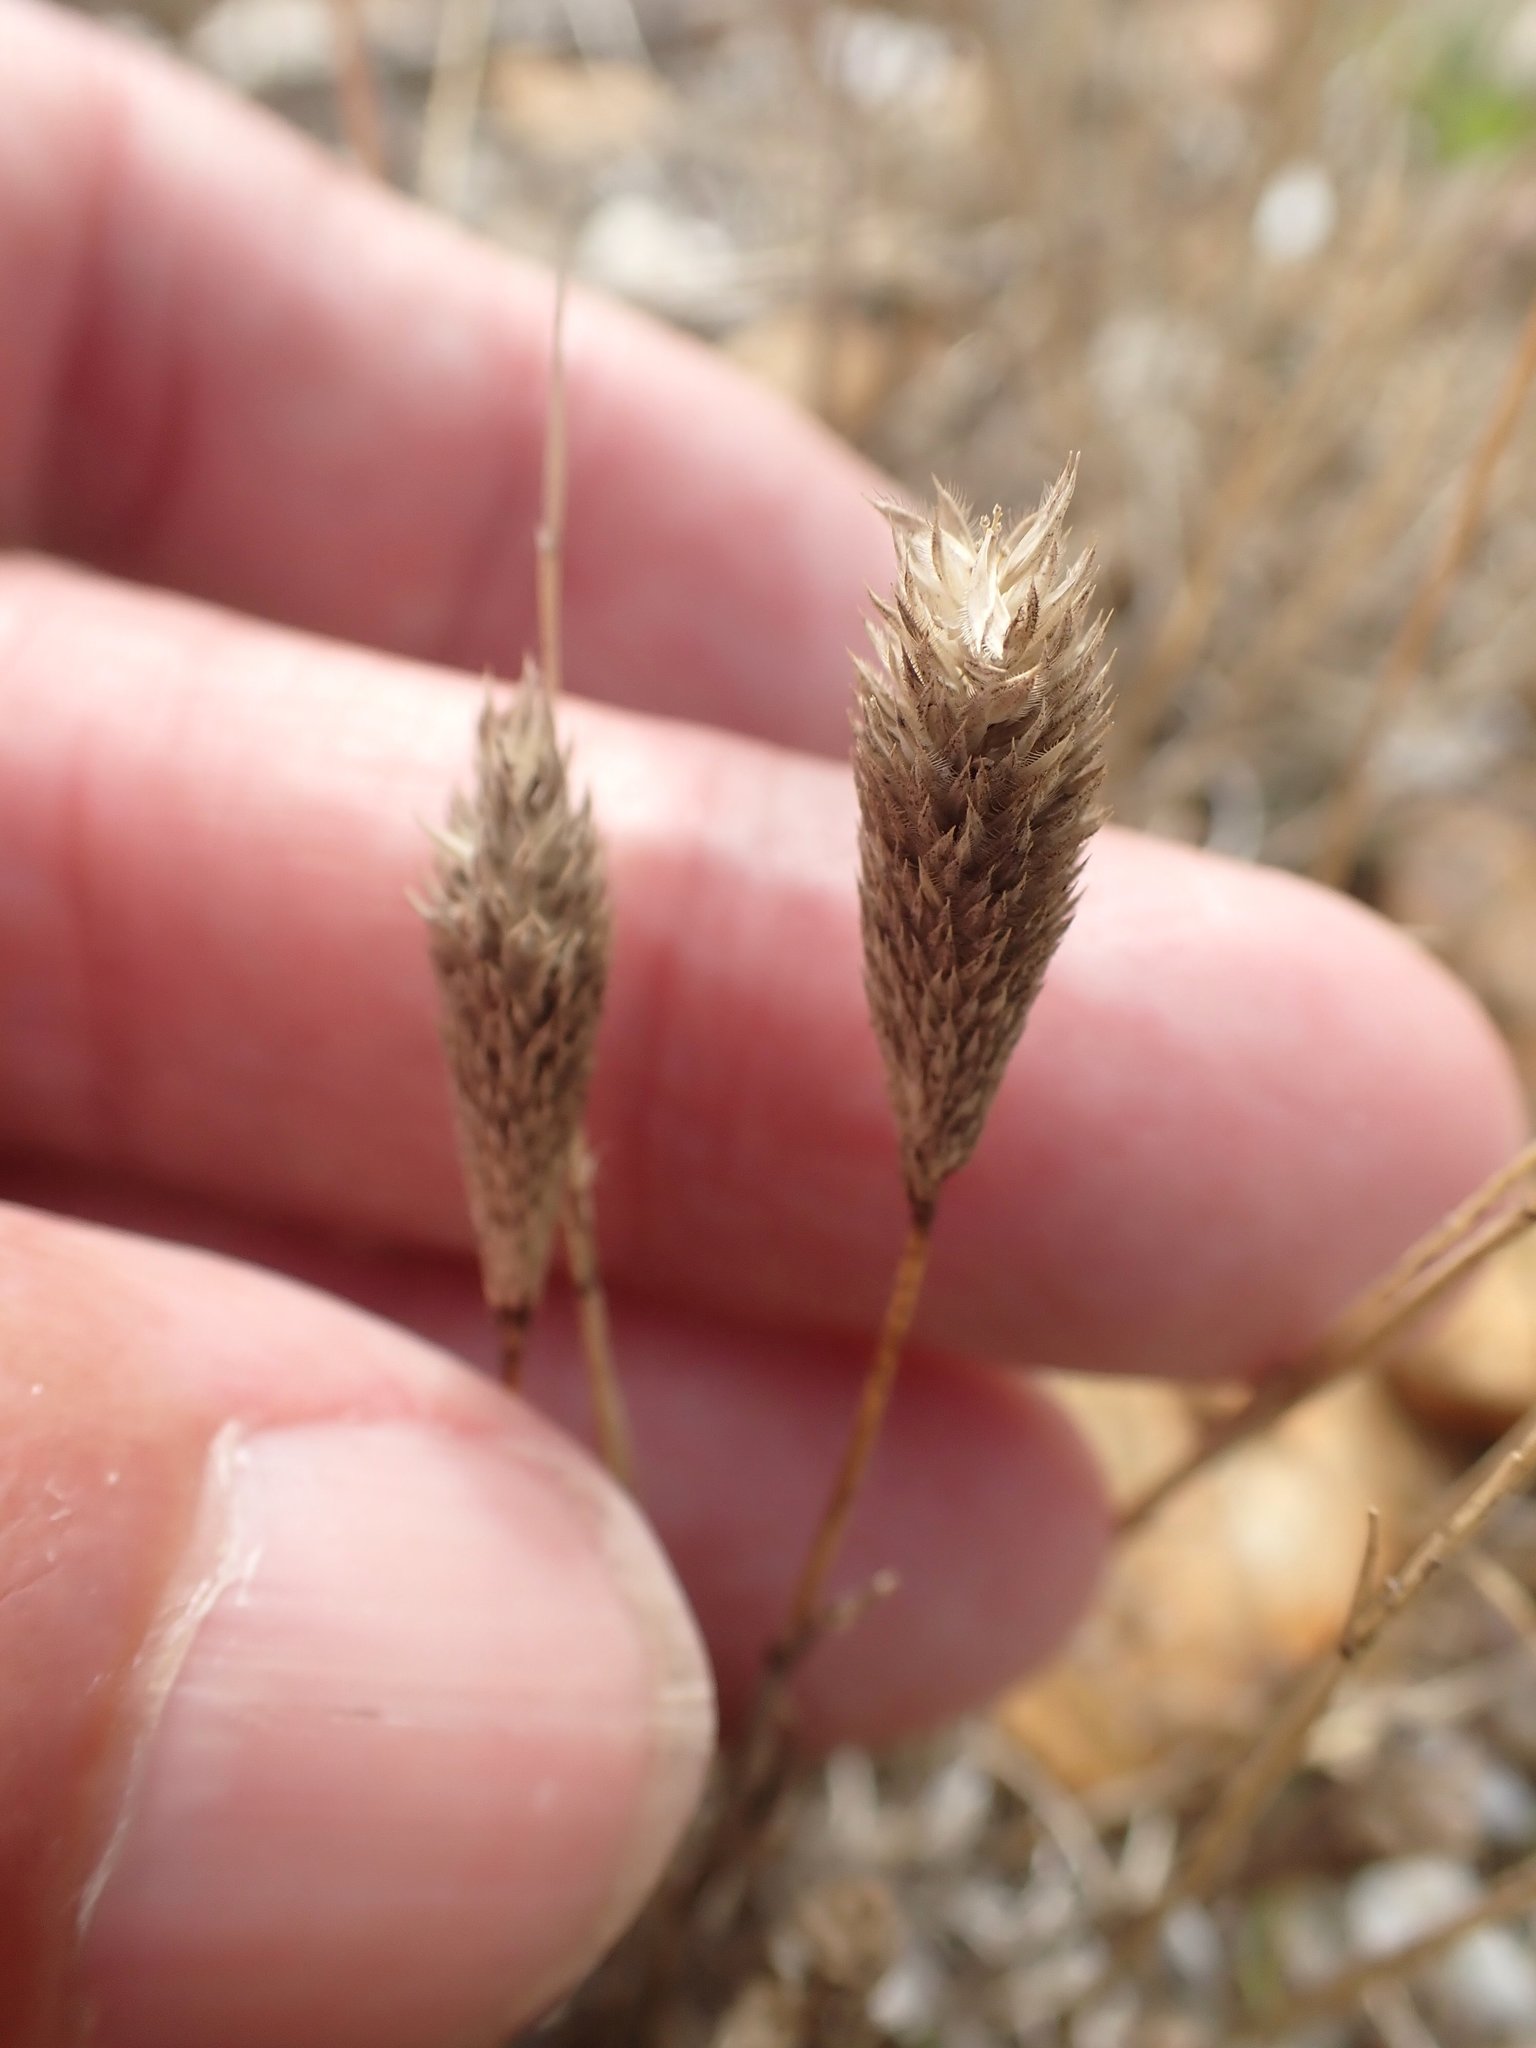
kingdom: Plantae
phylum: Tracheophyta
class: Liliopsida
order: Poales
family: Poaceae
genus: Phleum
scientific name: Phleum arenarium
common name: Sand cat's-tail
